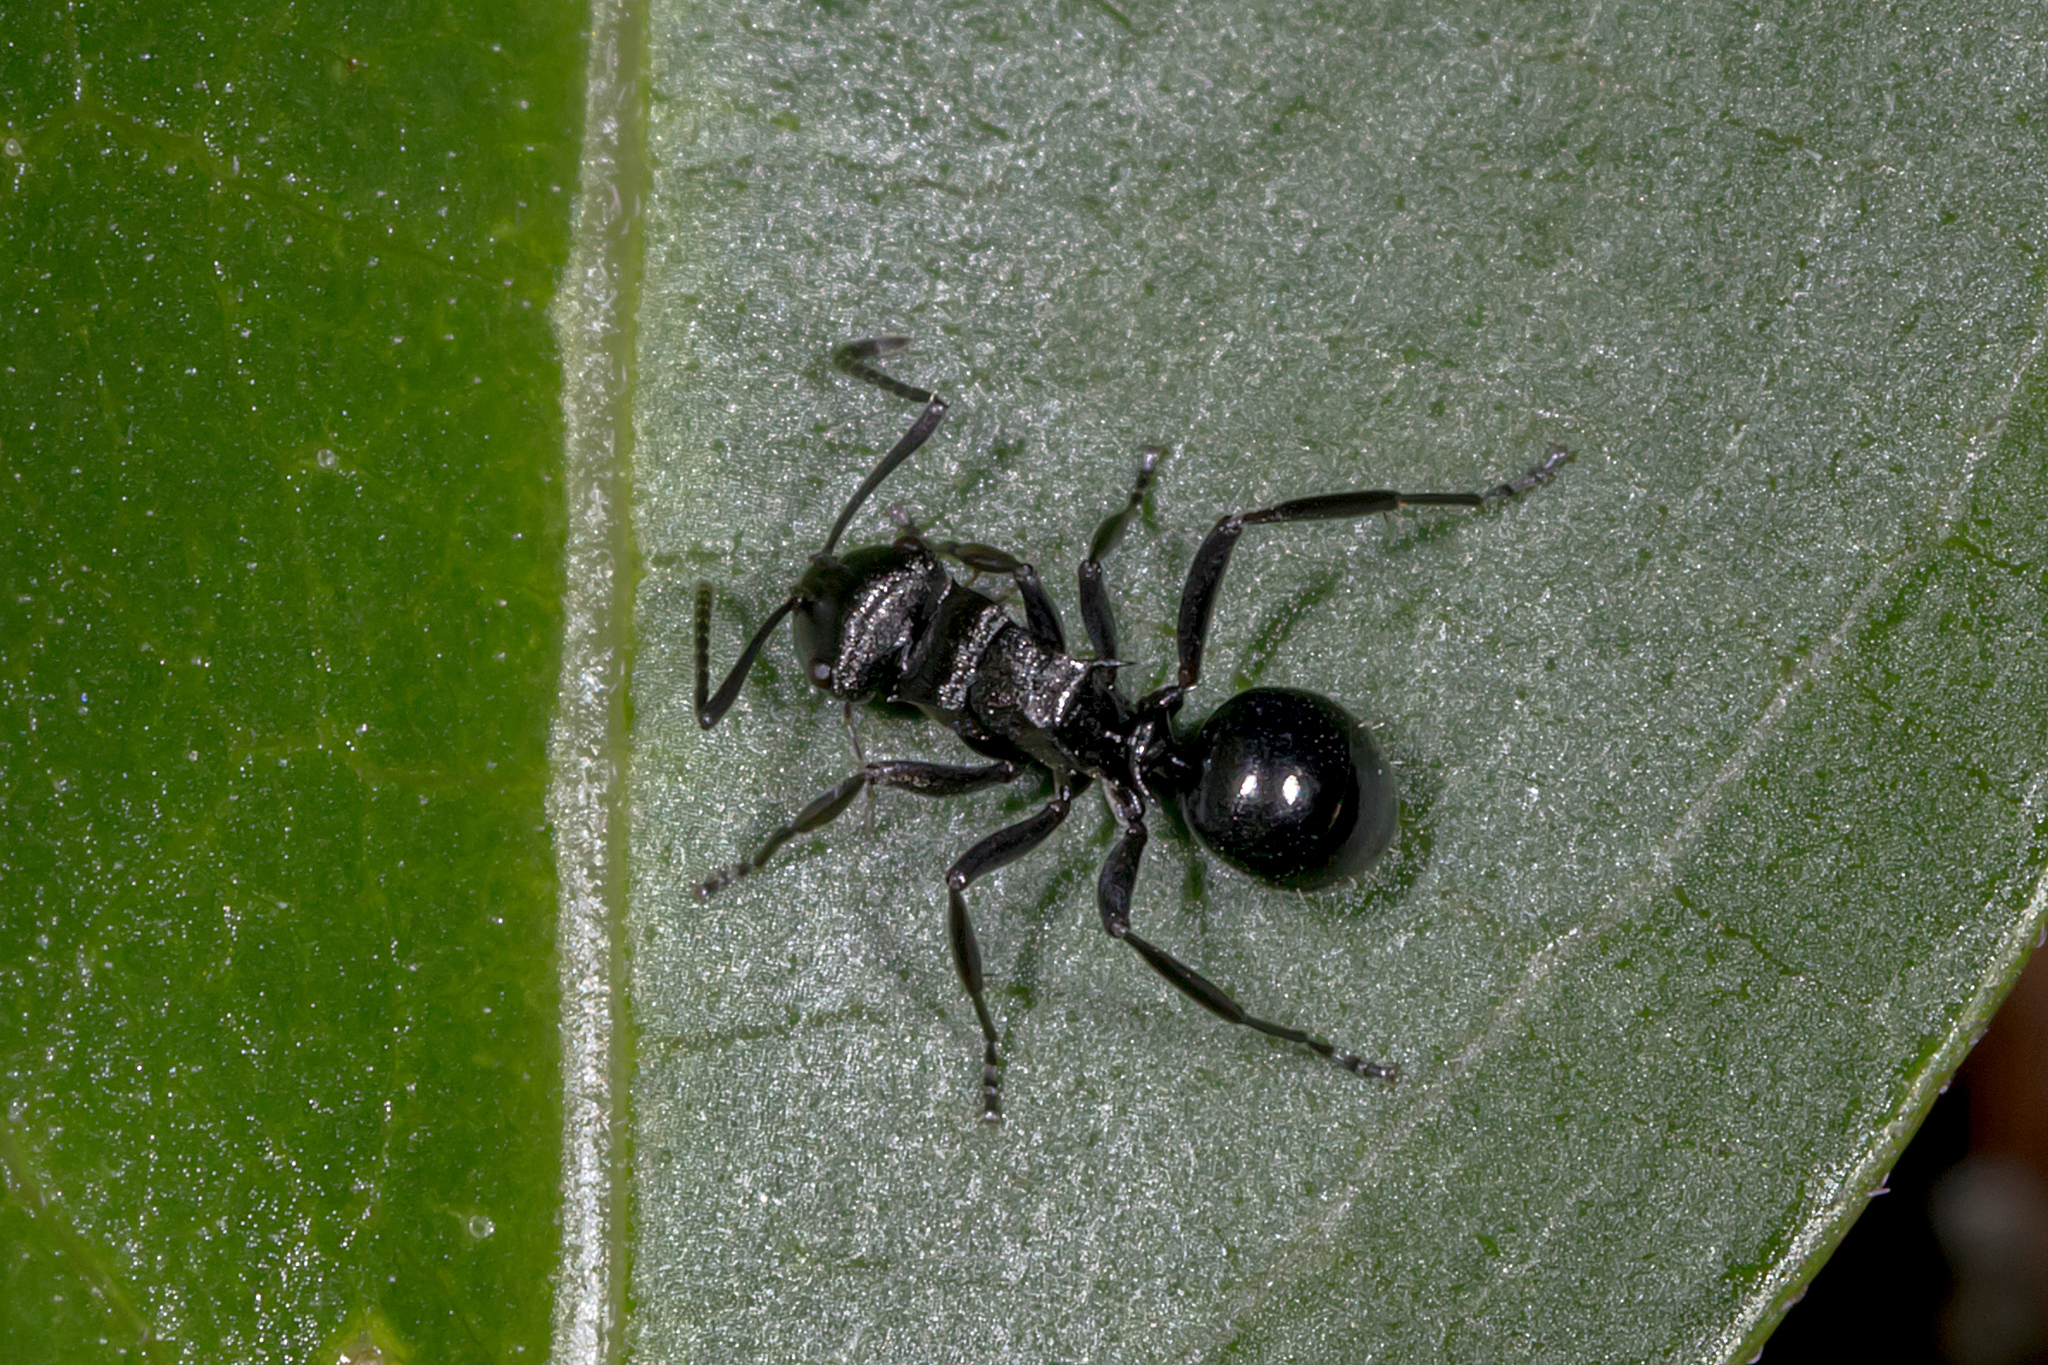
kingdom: Animalia
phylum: Arthropoda
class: Insecta
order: Hymenoptera
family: Formicidae
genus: Polyrhachis
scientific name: Polyrhachis clio
